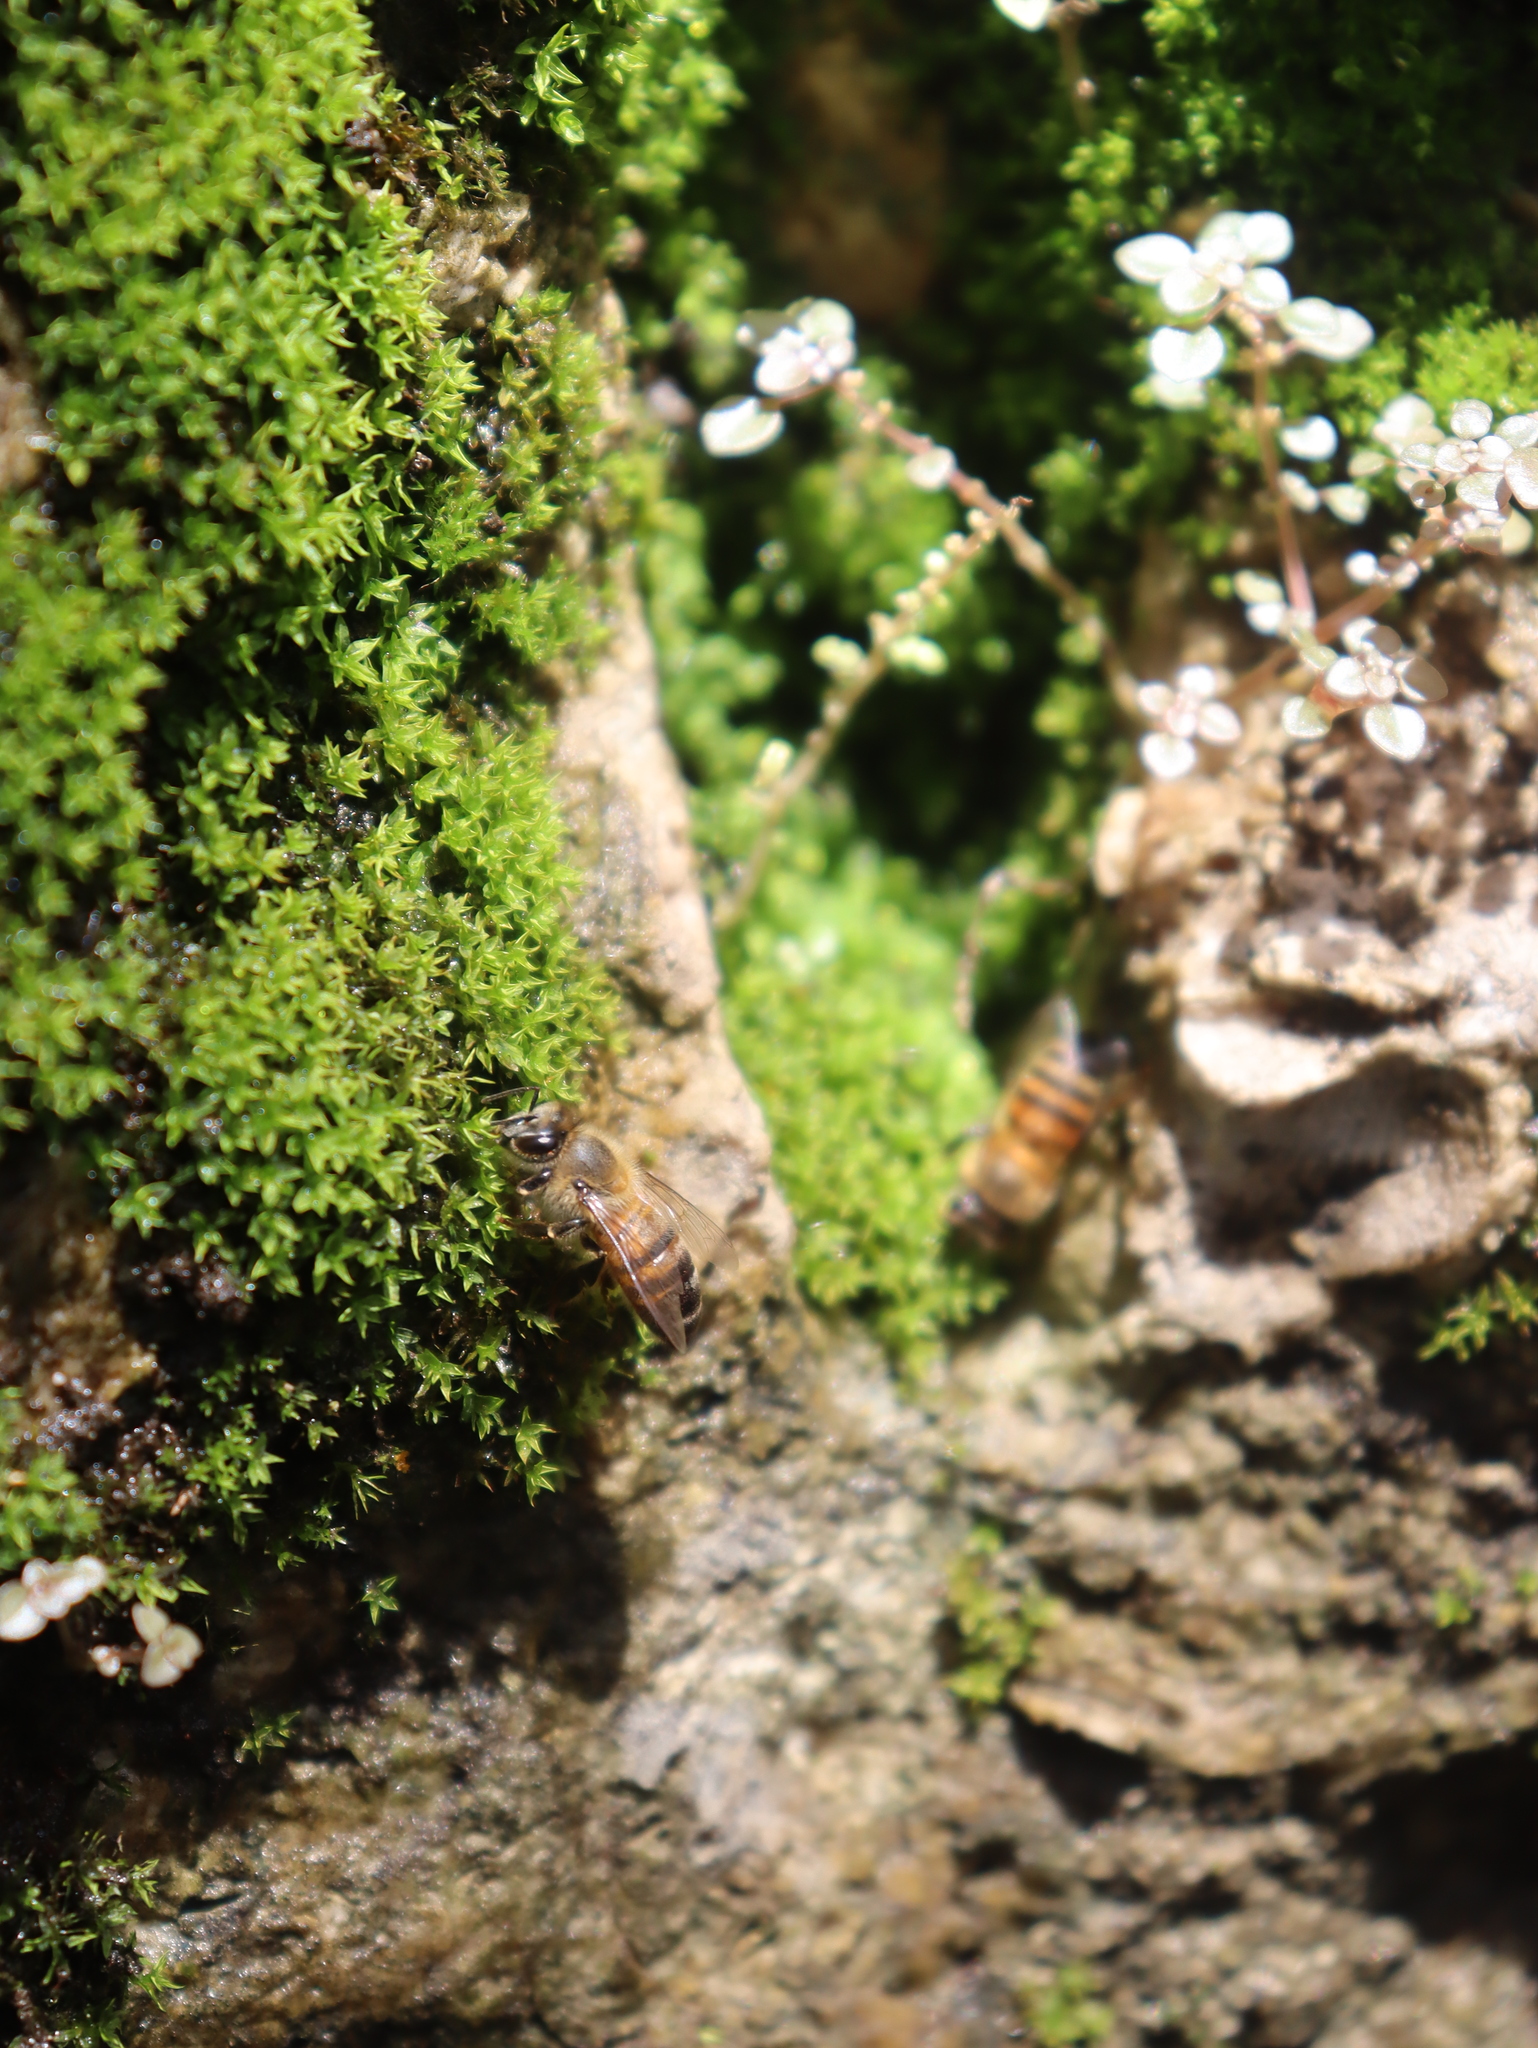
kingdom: Animalia
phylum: Arthropoda
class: Insecta
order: Hymenoptera
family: Apidae
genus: Apis
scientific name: Apis mellifera
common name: Honey bee
